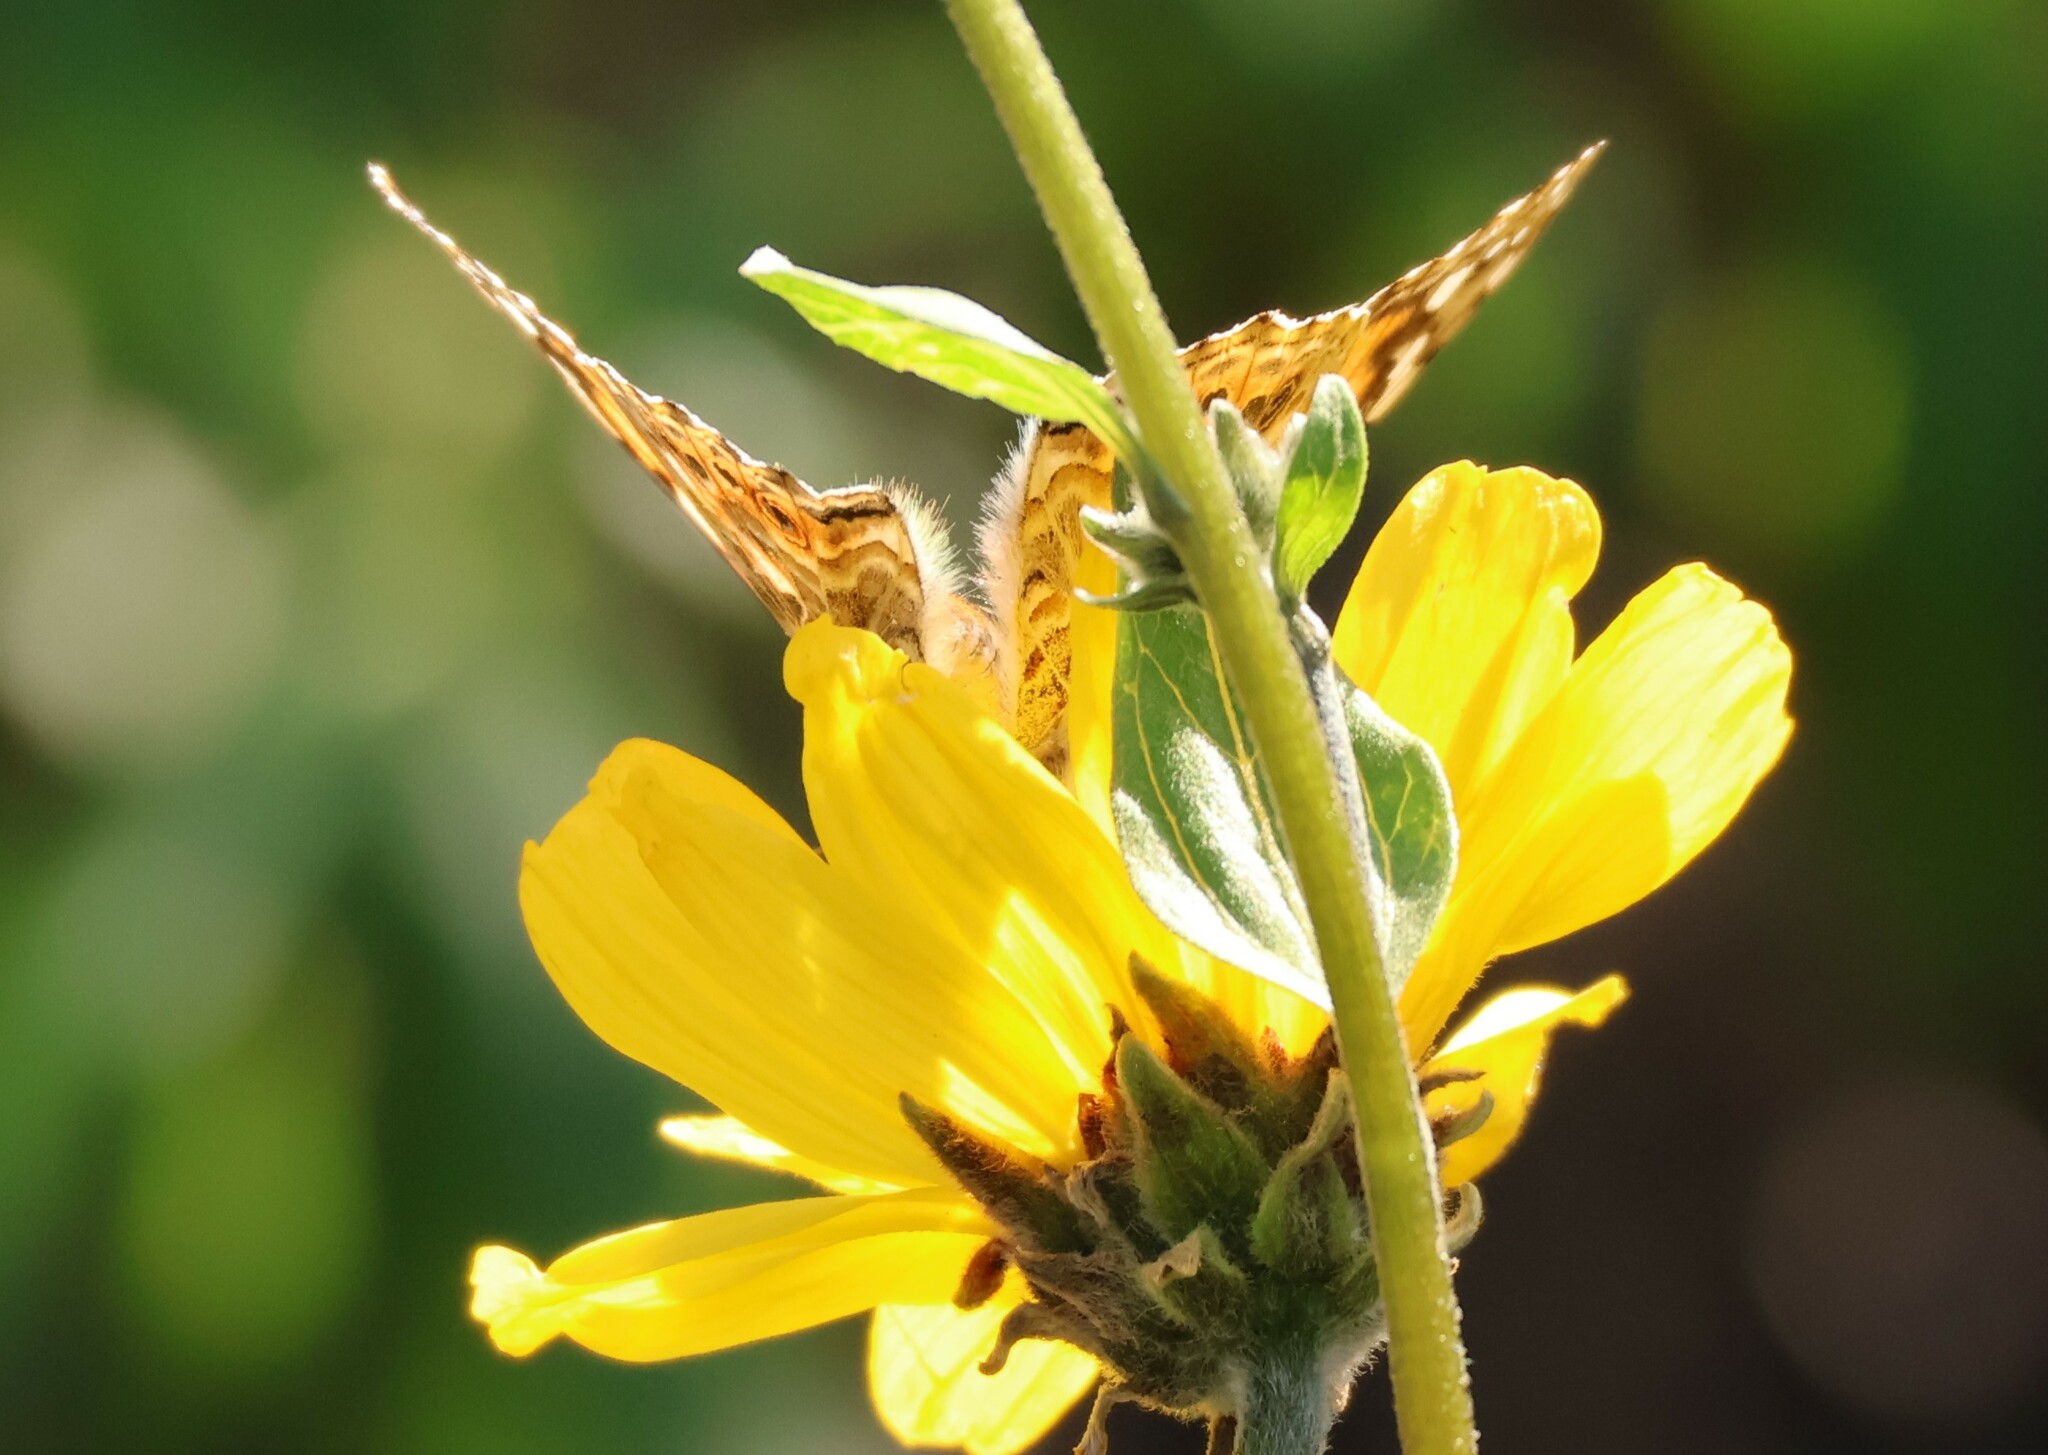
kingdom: Animalia
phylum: Arthropoda
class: Insecta
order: Lepidoptera
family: Nymphalidae
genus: Vanessa
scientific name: Vanessa cardui
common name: Painted lady
